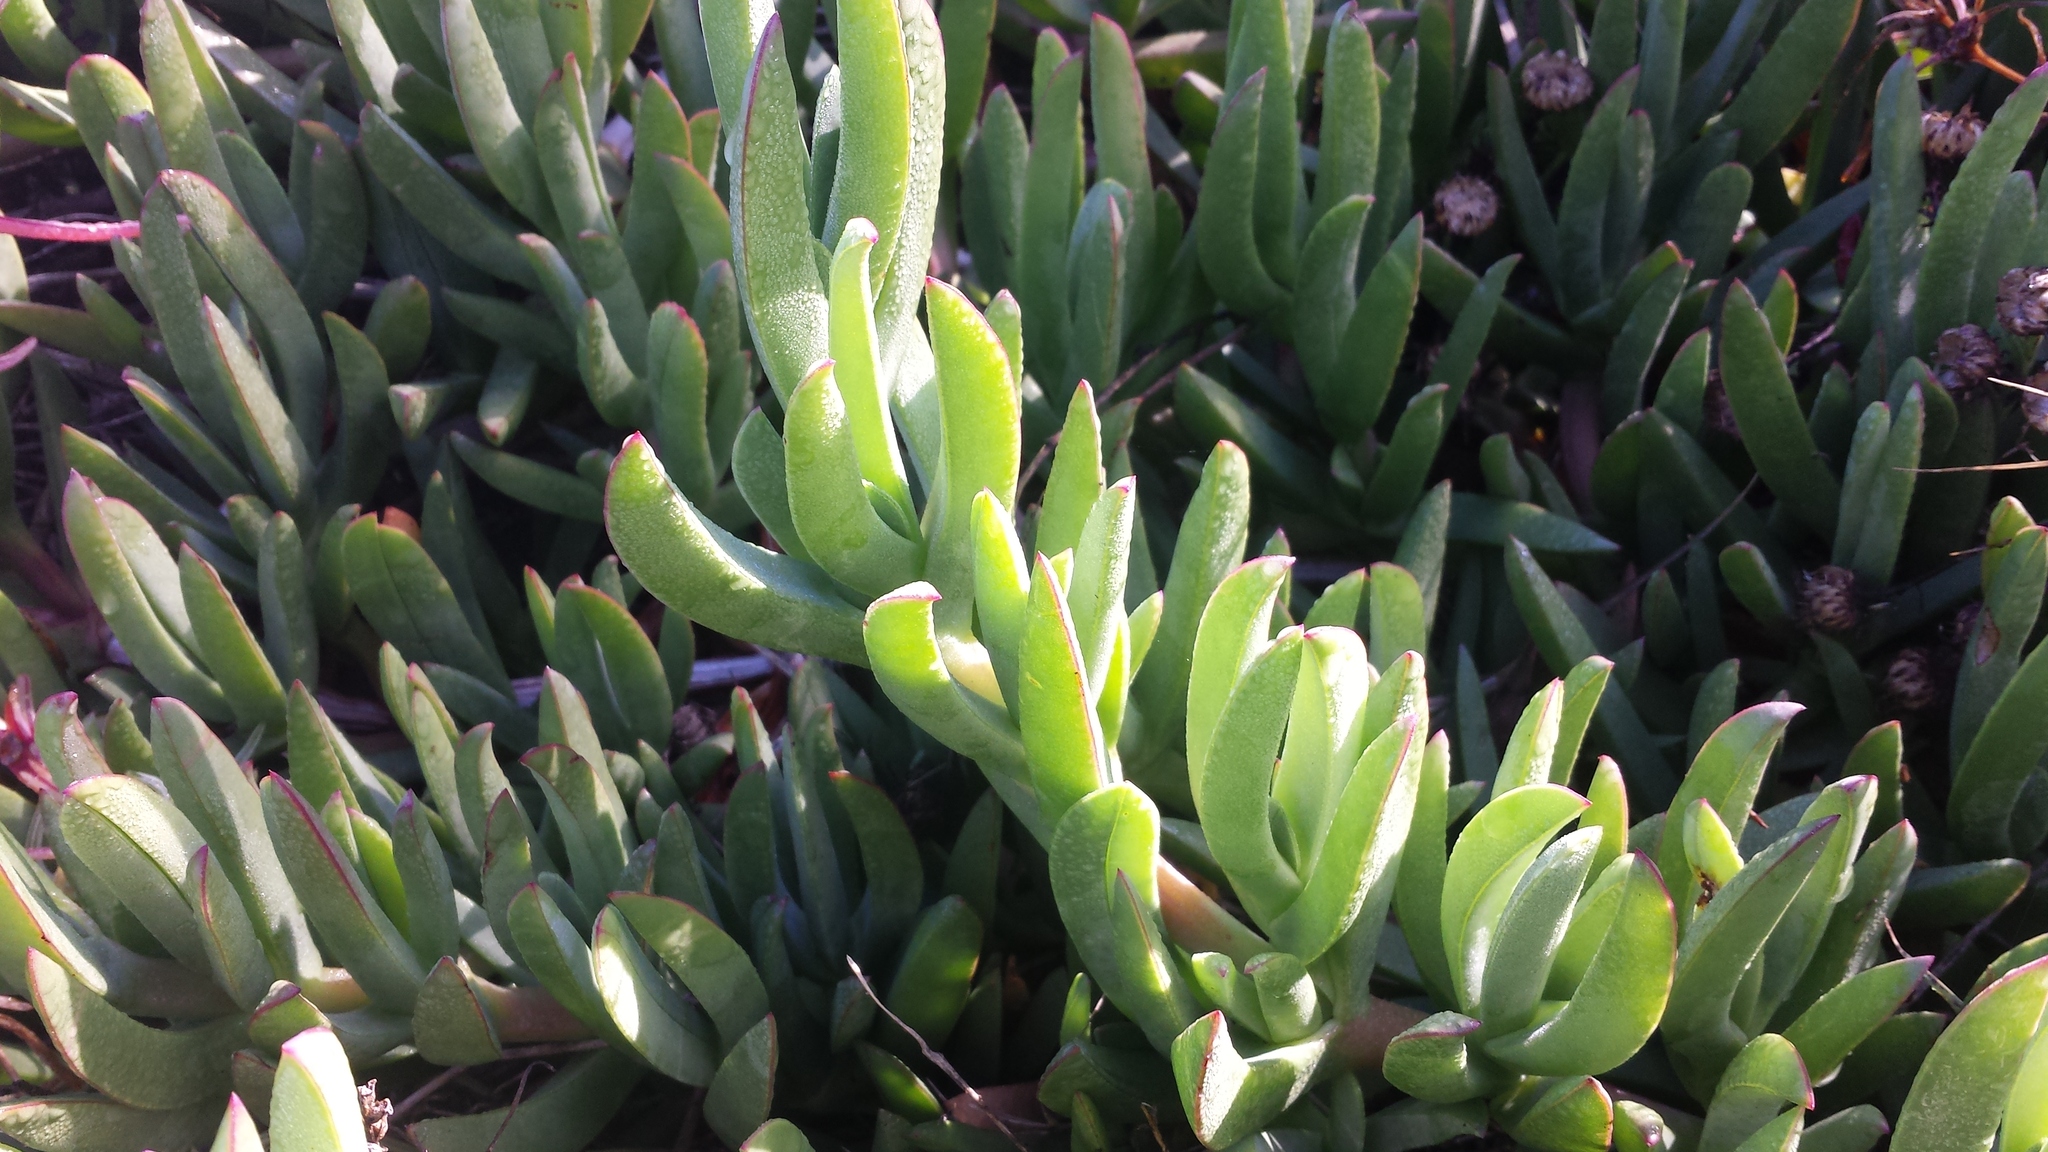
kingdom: Plantae
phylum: Tracheophyta
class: Magnoliopsida
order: Caryophyllales
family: Aizoaceae
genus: Carpobrotus
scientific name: Carpobrotus chilensis
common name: Sea fig
